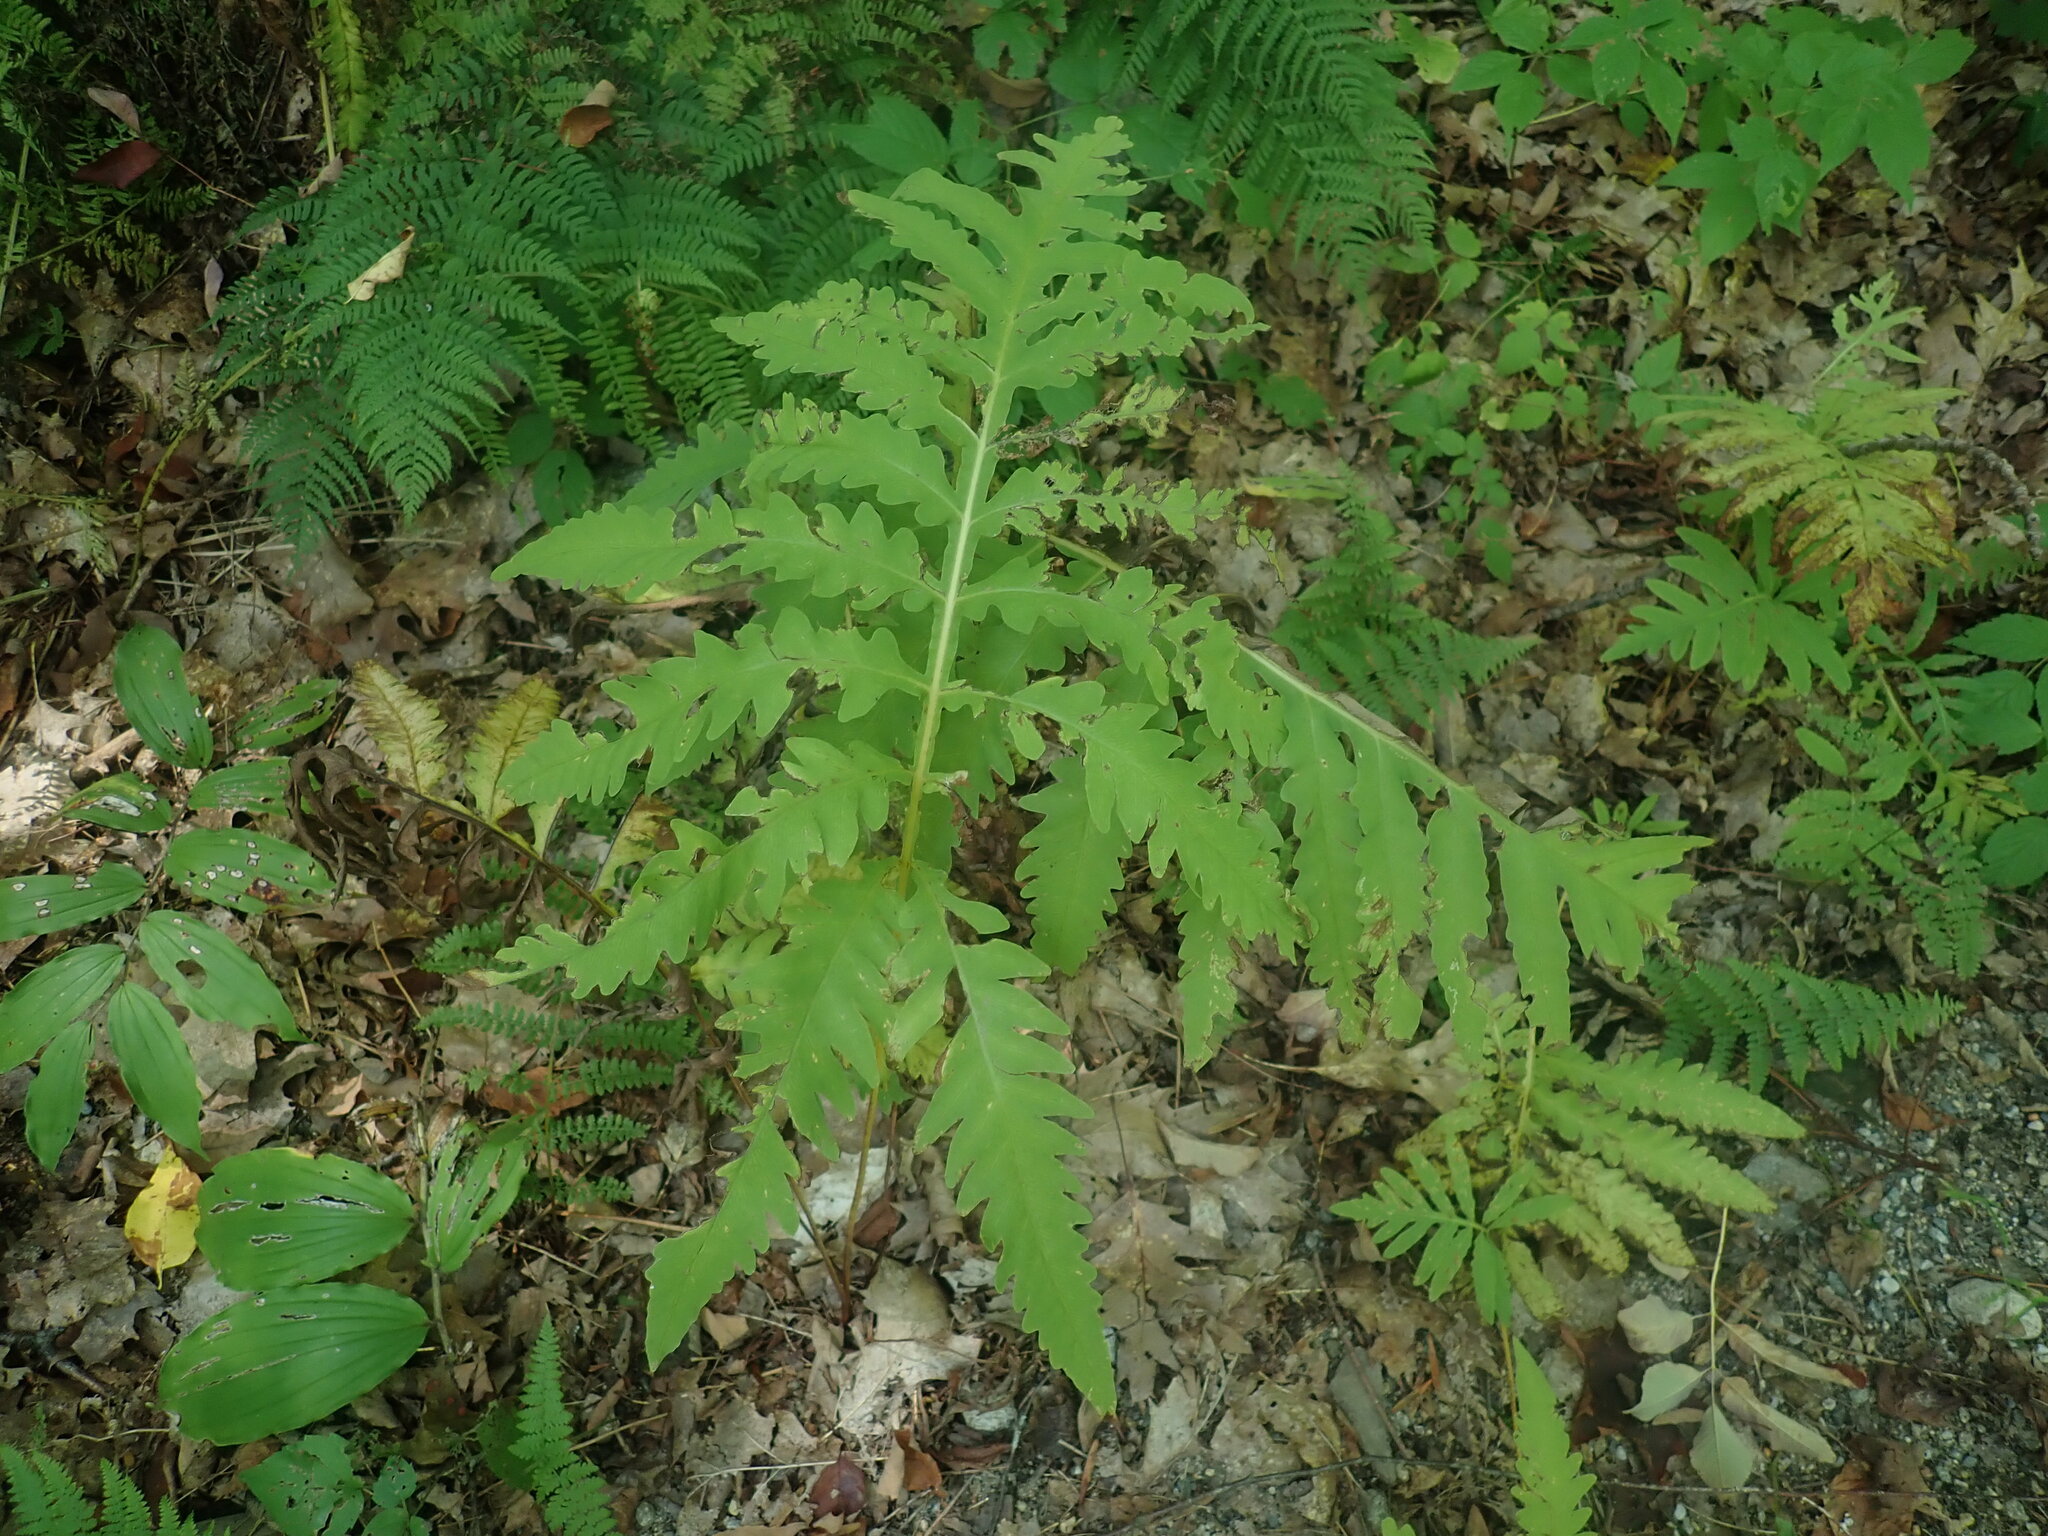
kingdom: Plantae
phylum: Tracheophyta
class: Polypodiopsida
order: Polypodiales
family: Onocleaceae
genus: Onoclea
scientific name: Onoclea sensibilis
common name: Sensitive fern
